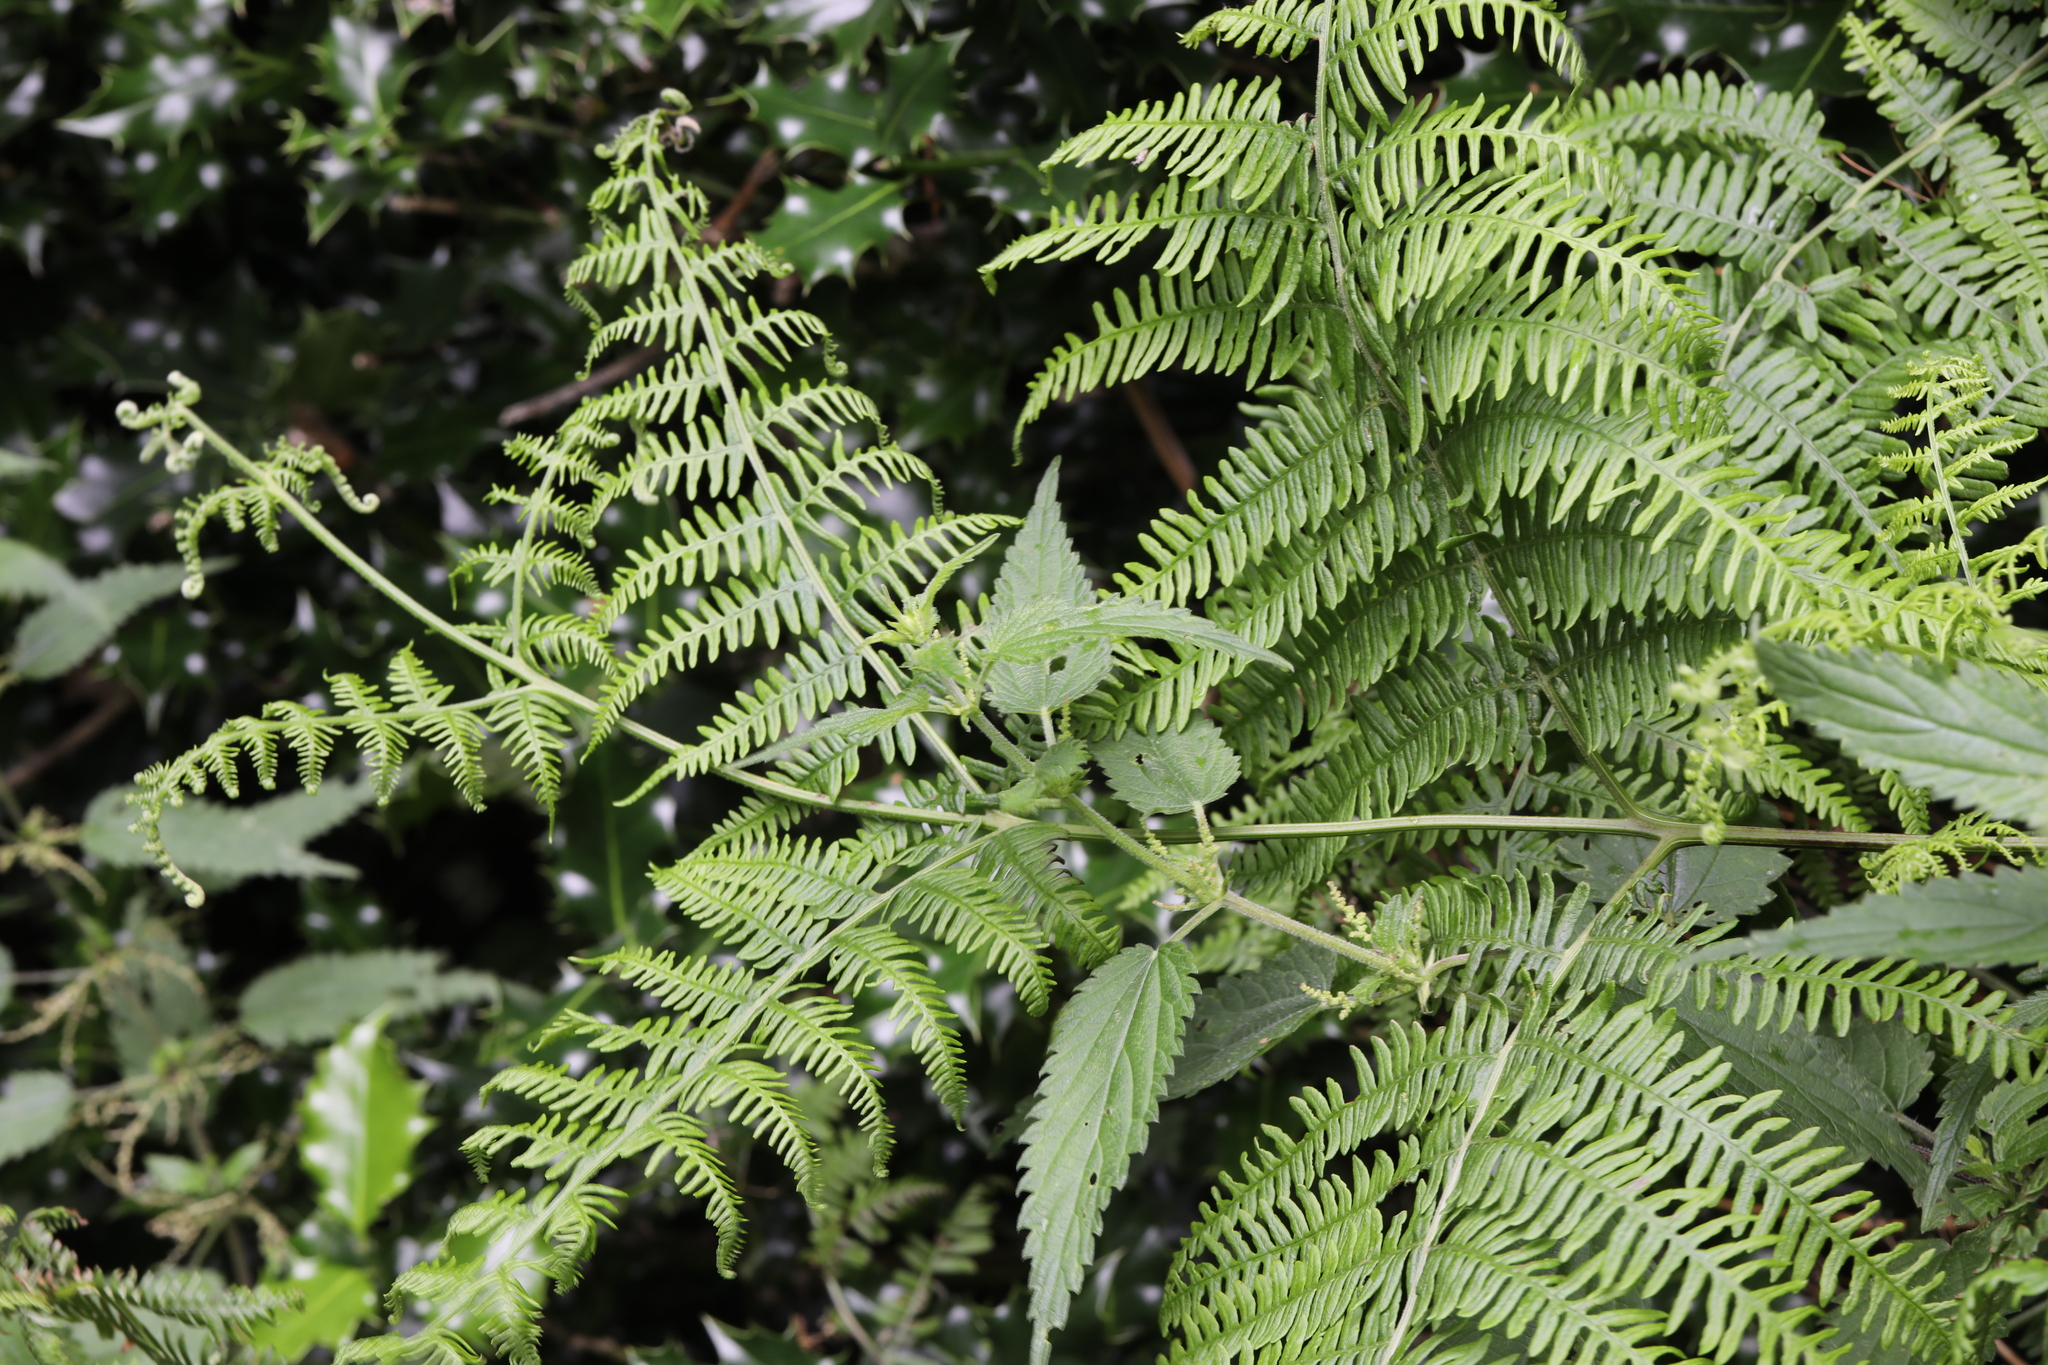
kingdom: Plantae
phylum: Tracheophyta
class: Polypodiopsida
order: Polypodiales
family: Dennstaedtiaceae
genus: Pteridium
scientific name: Pteridium aquilinum
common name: Bracken
